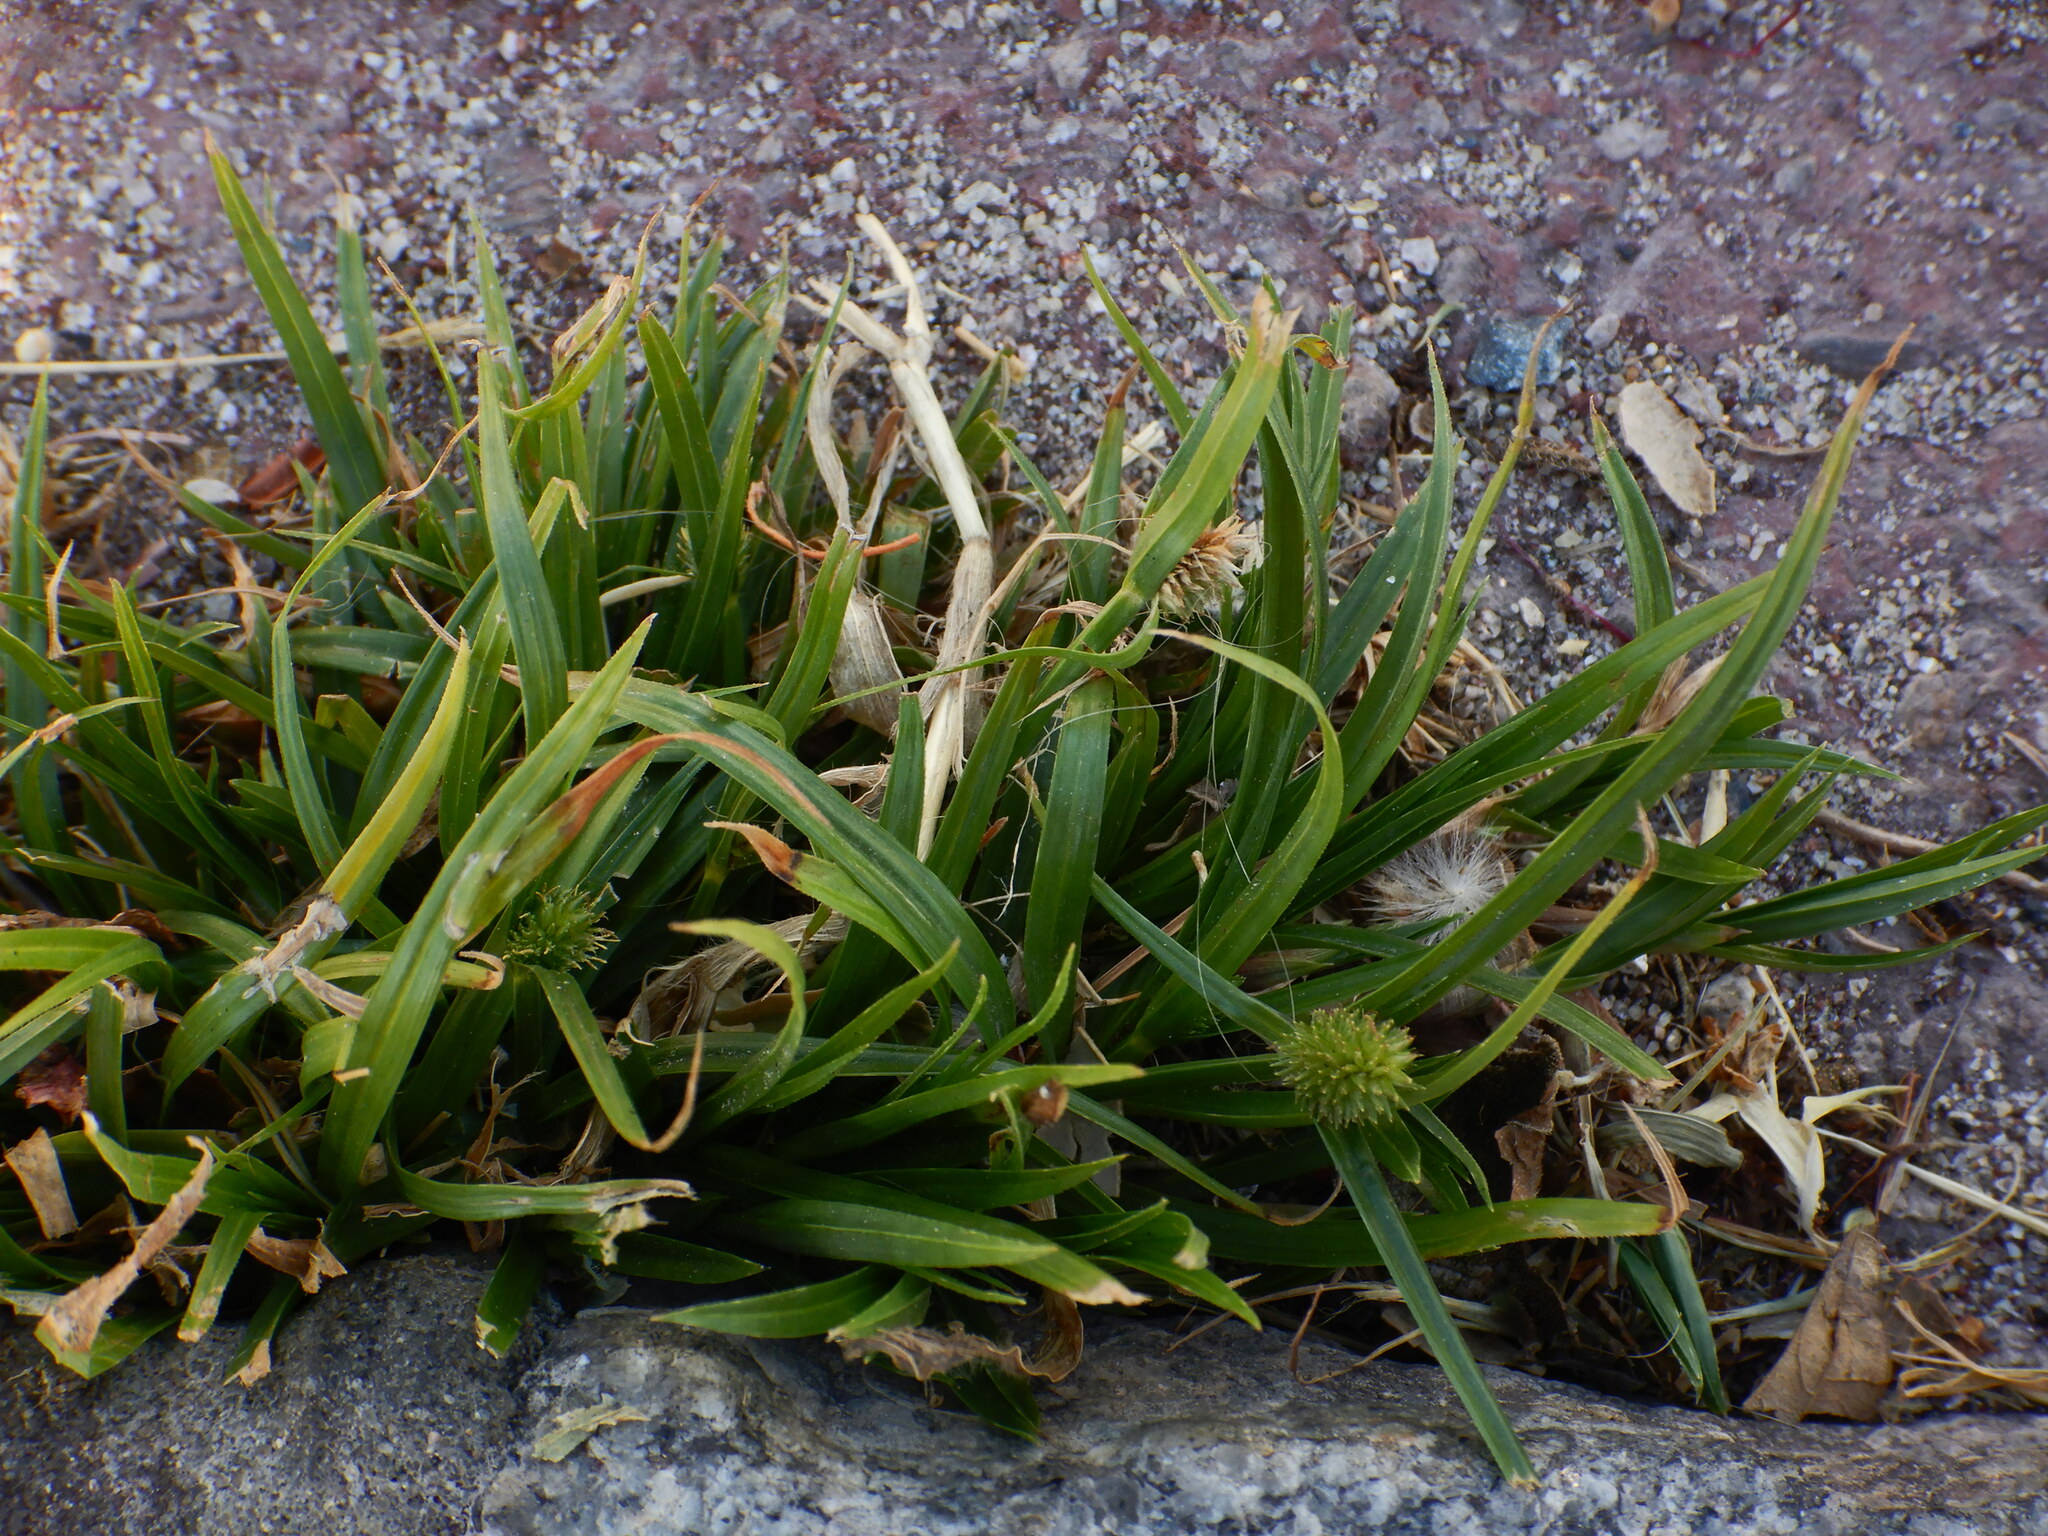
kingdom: Plantae
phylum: Tracheophyta
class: Liliopsida
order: Poales
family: Cyperaceae
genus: Cyperus
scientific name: Cyperus brevifolius
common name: Globe kyllinga
